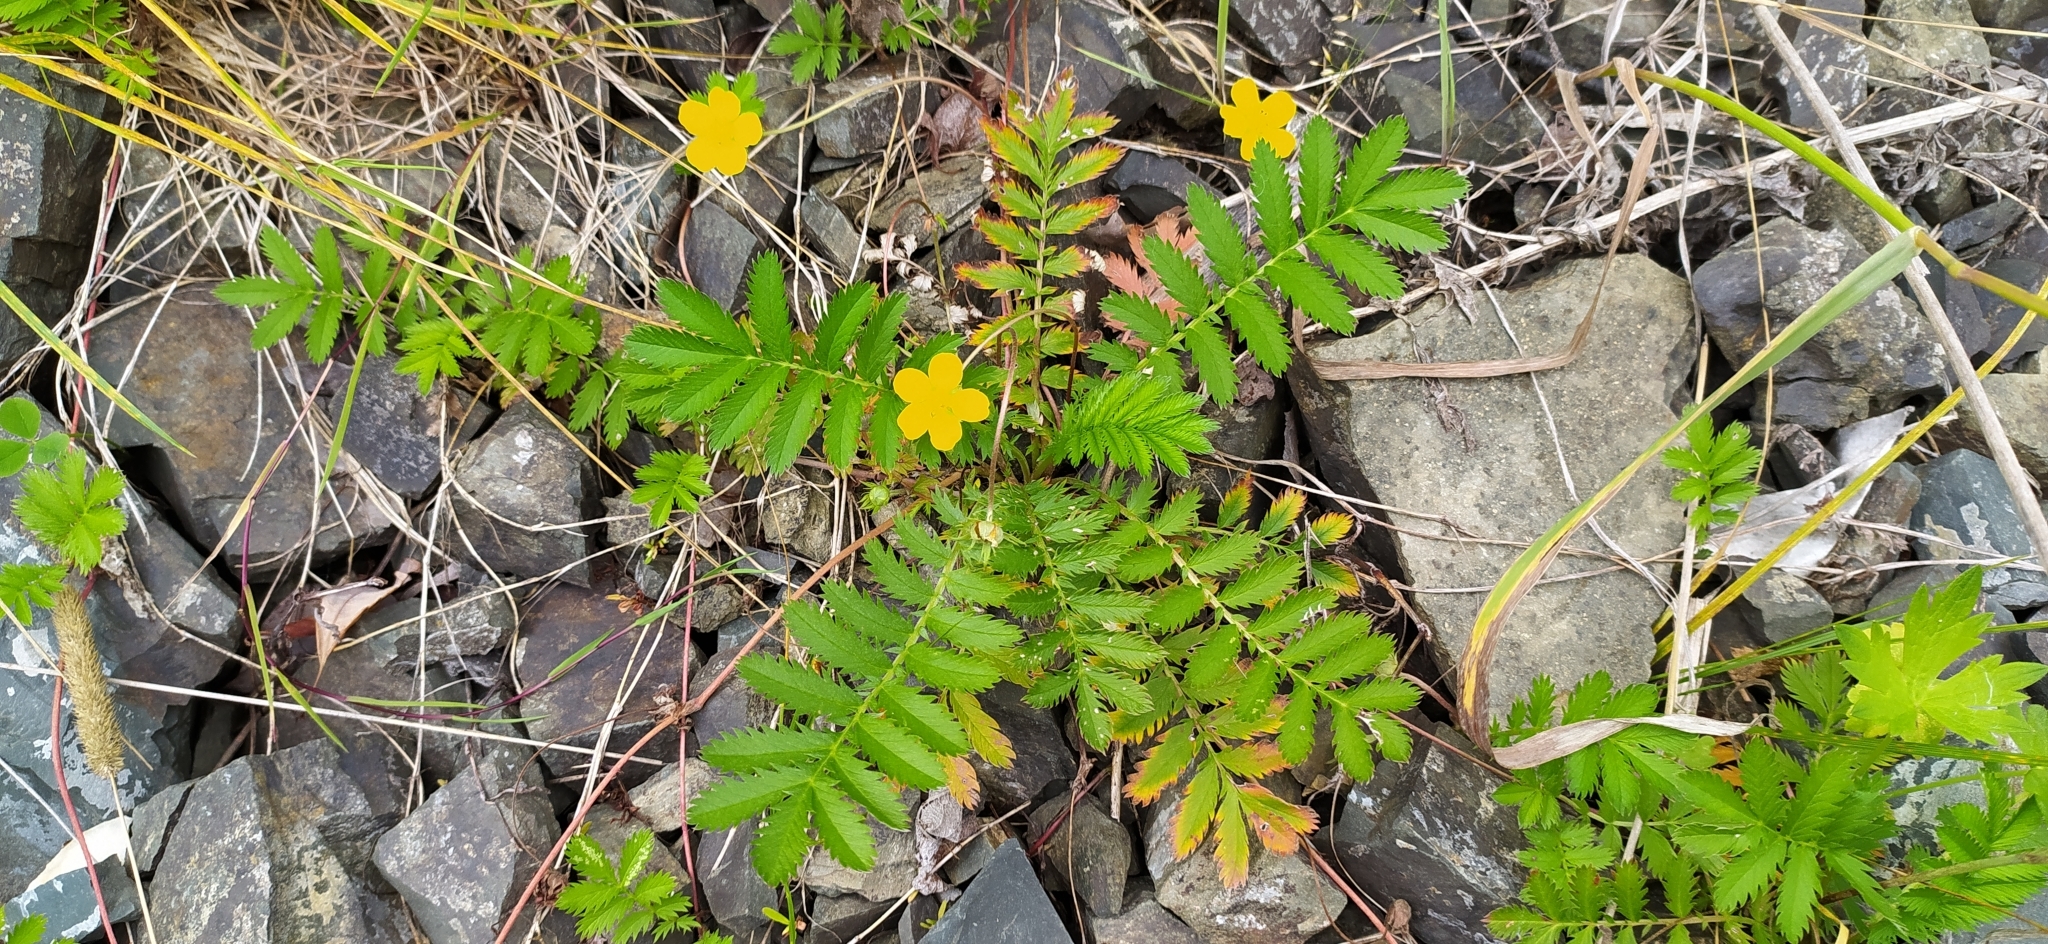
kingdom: Plantae
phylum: Tracheophyta
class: Magnoliopsida
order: Rosales
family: Rosaceae
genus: Argentina
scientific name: Argentina anserina
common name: Common silverweed
